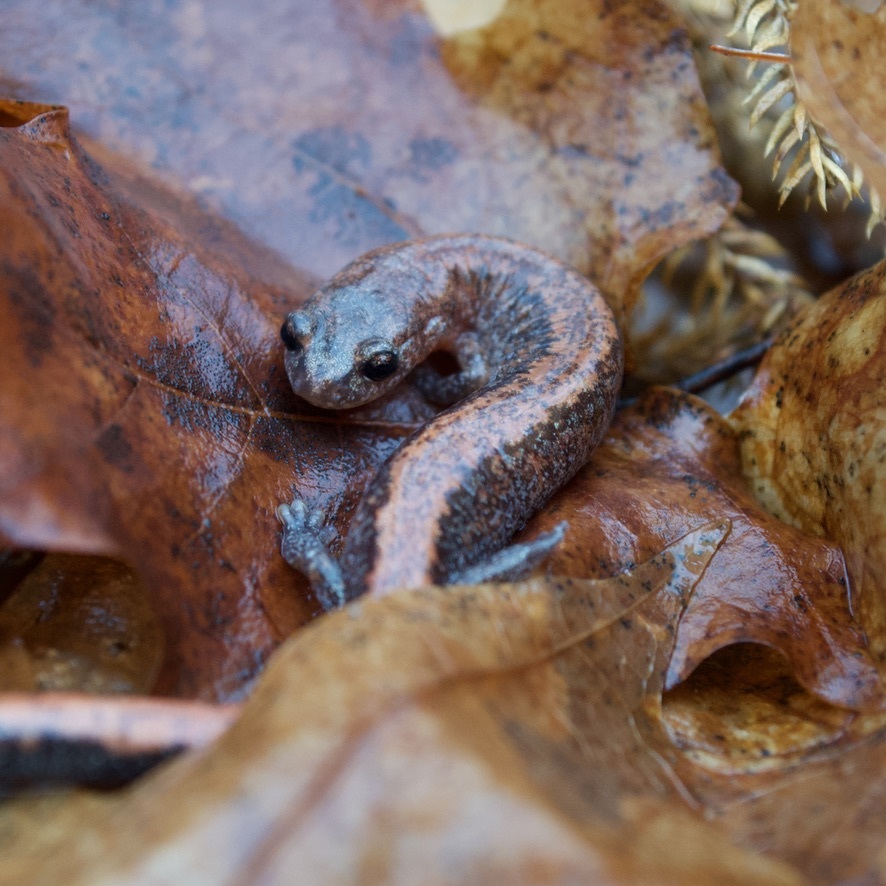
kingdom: Animalia
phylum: Chordata
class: Amphibia
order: Caudata
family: Plethodontidae
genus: Plethodon
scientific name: Plethodon cinereus
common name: Redback salamander
